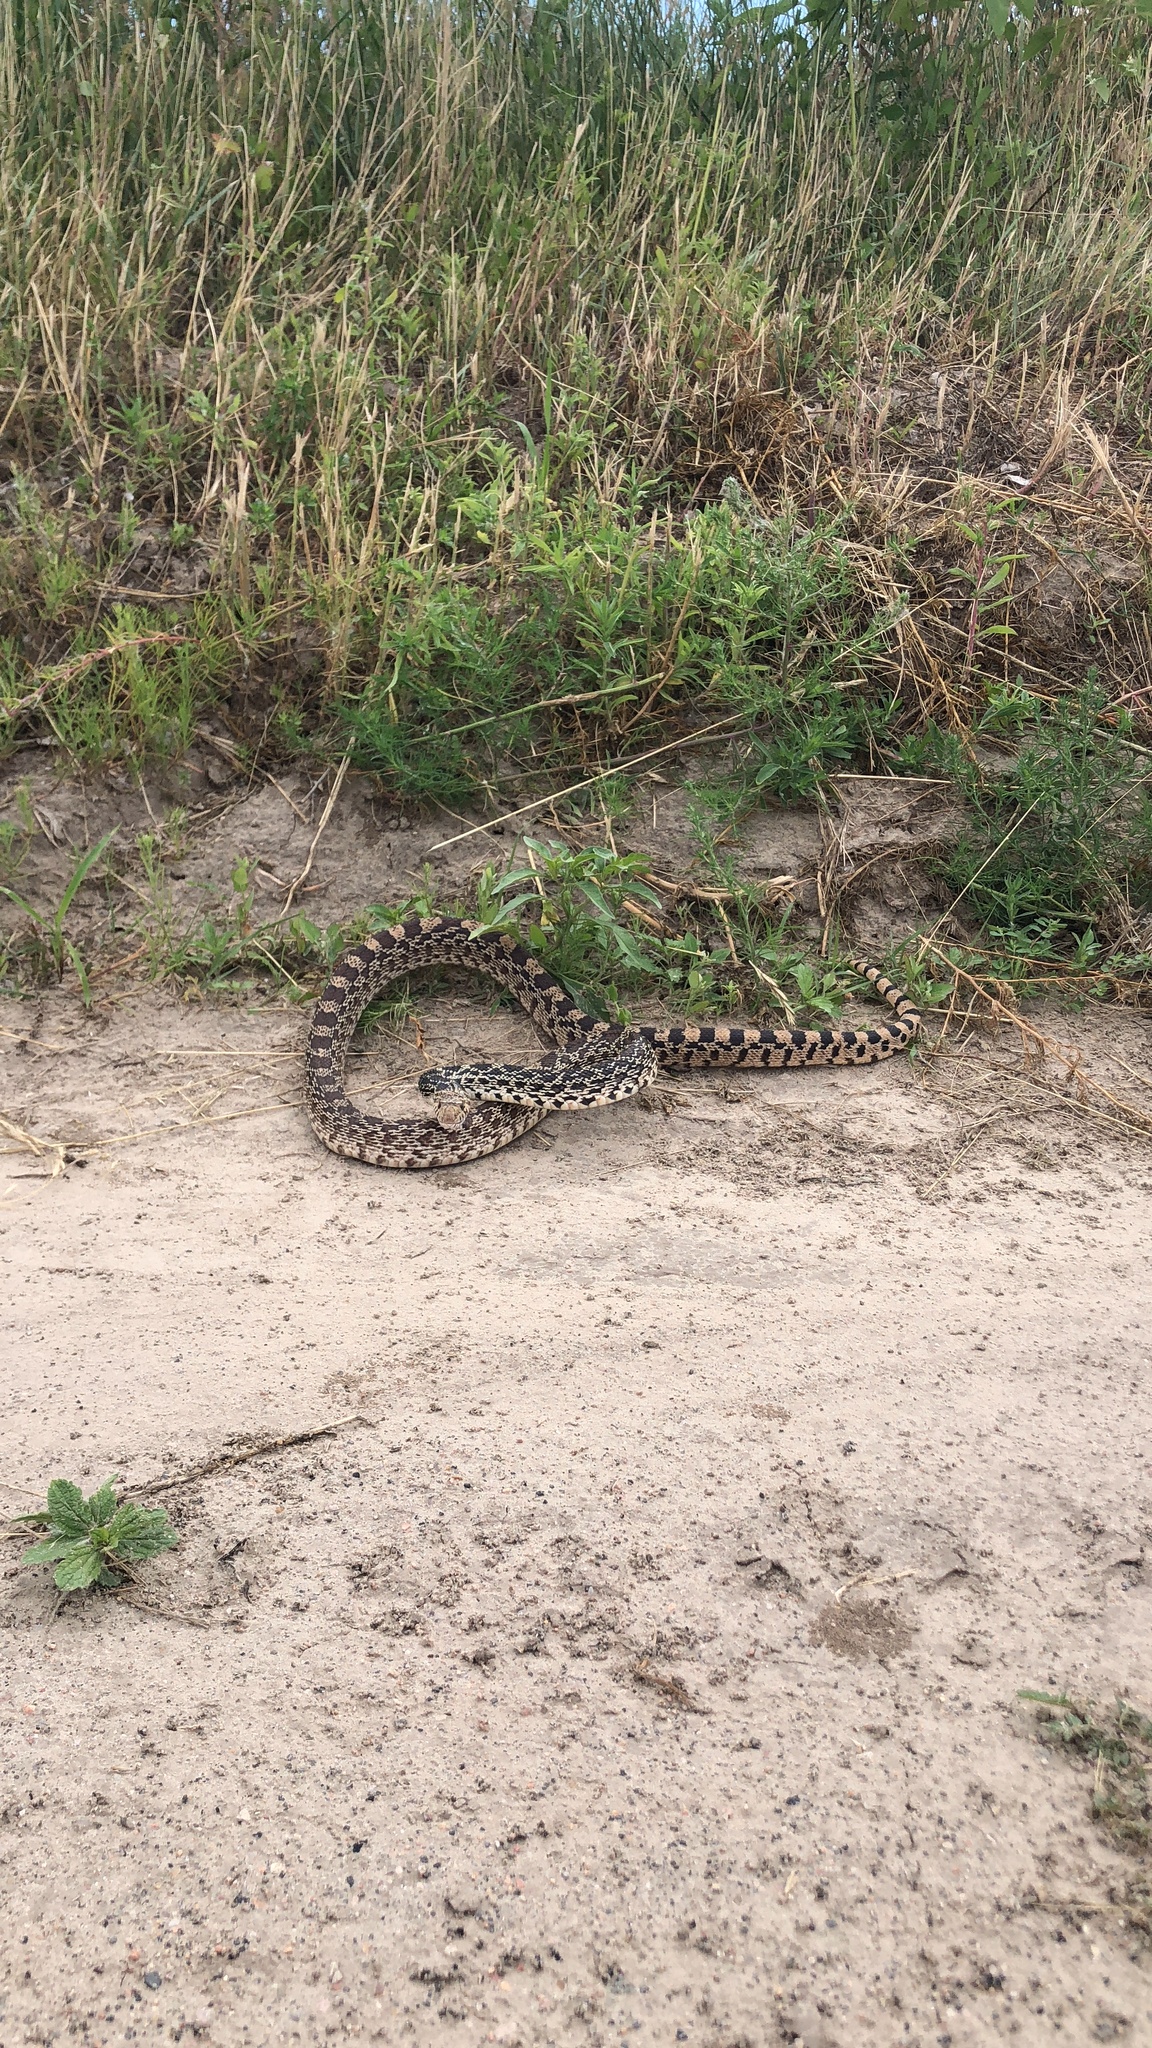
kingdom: Animalia
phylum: Chordata
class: Squamata
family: Colubridae
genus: Pituophis
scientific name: Pituophis catenifer
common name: Gopher snake
